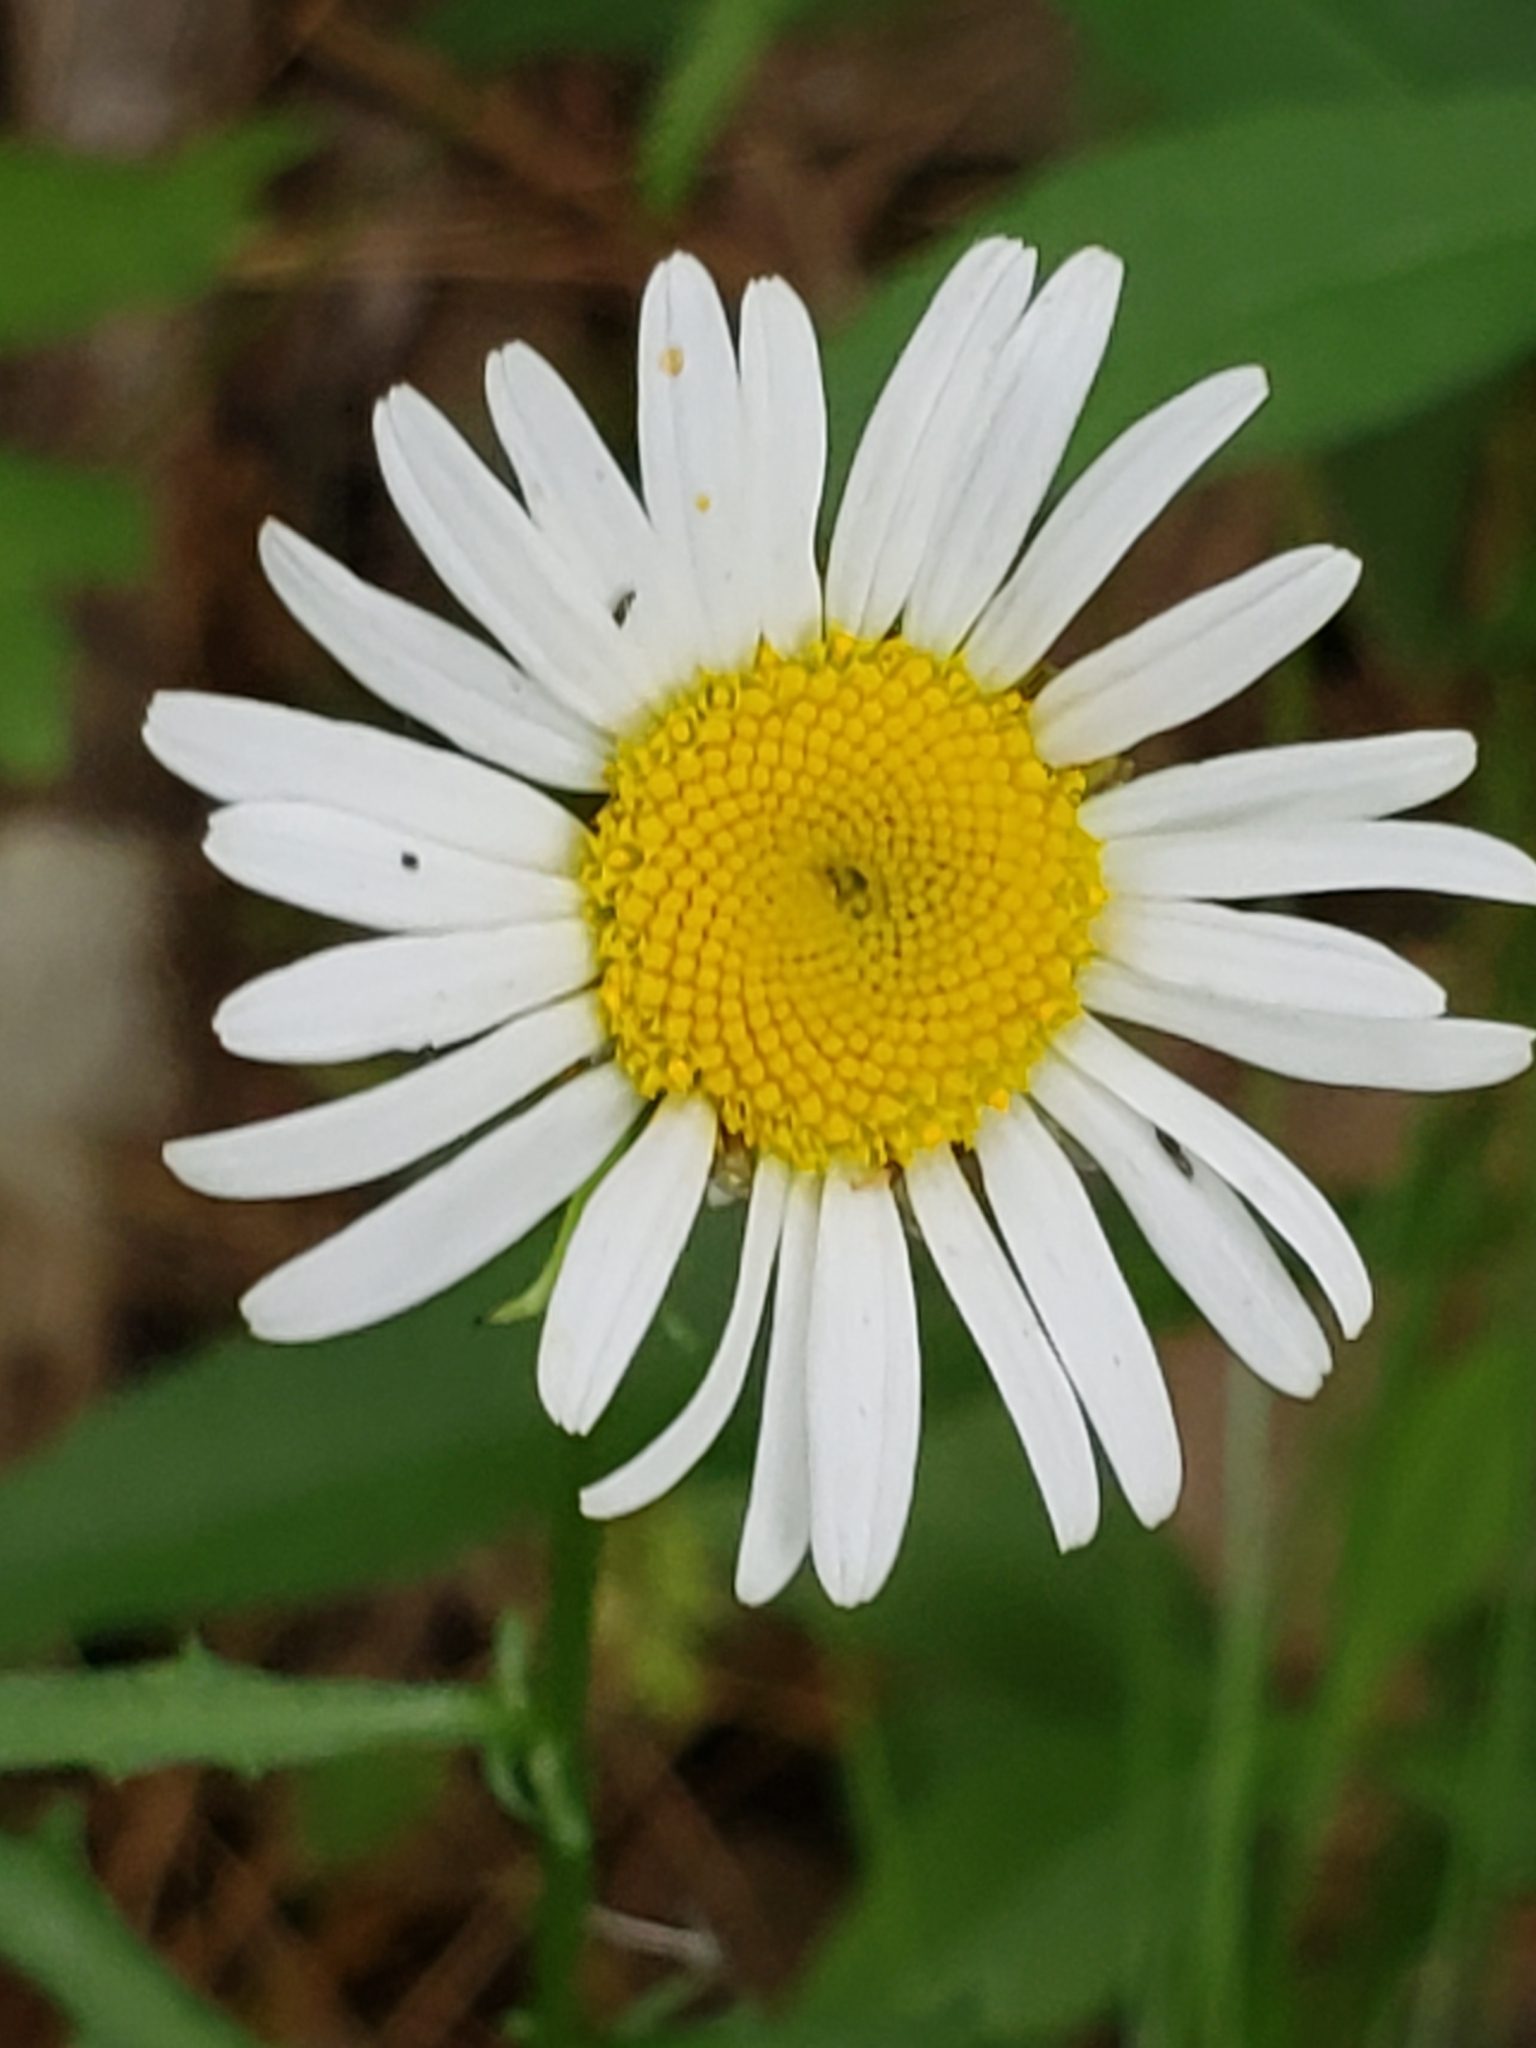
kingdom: Plantae
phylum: Tracheophyta
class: Magnoliopsida
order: Asterales
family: Asteraceae
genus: Leucanthemum
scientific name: Leucanthemum vulgare
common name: Oxeye daisy
